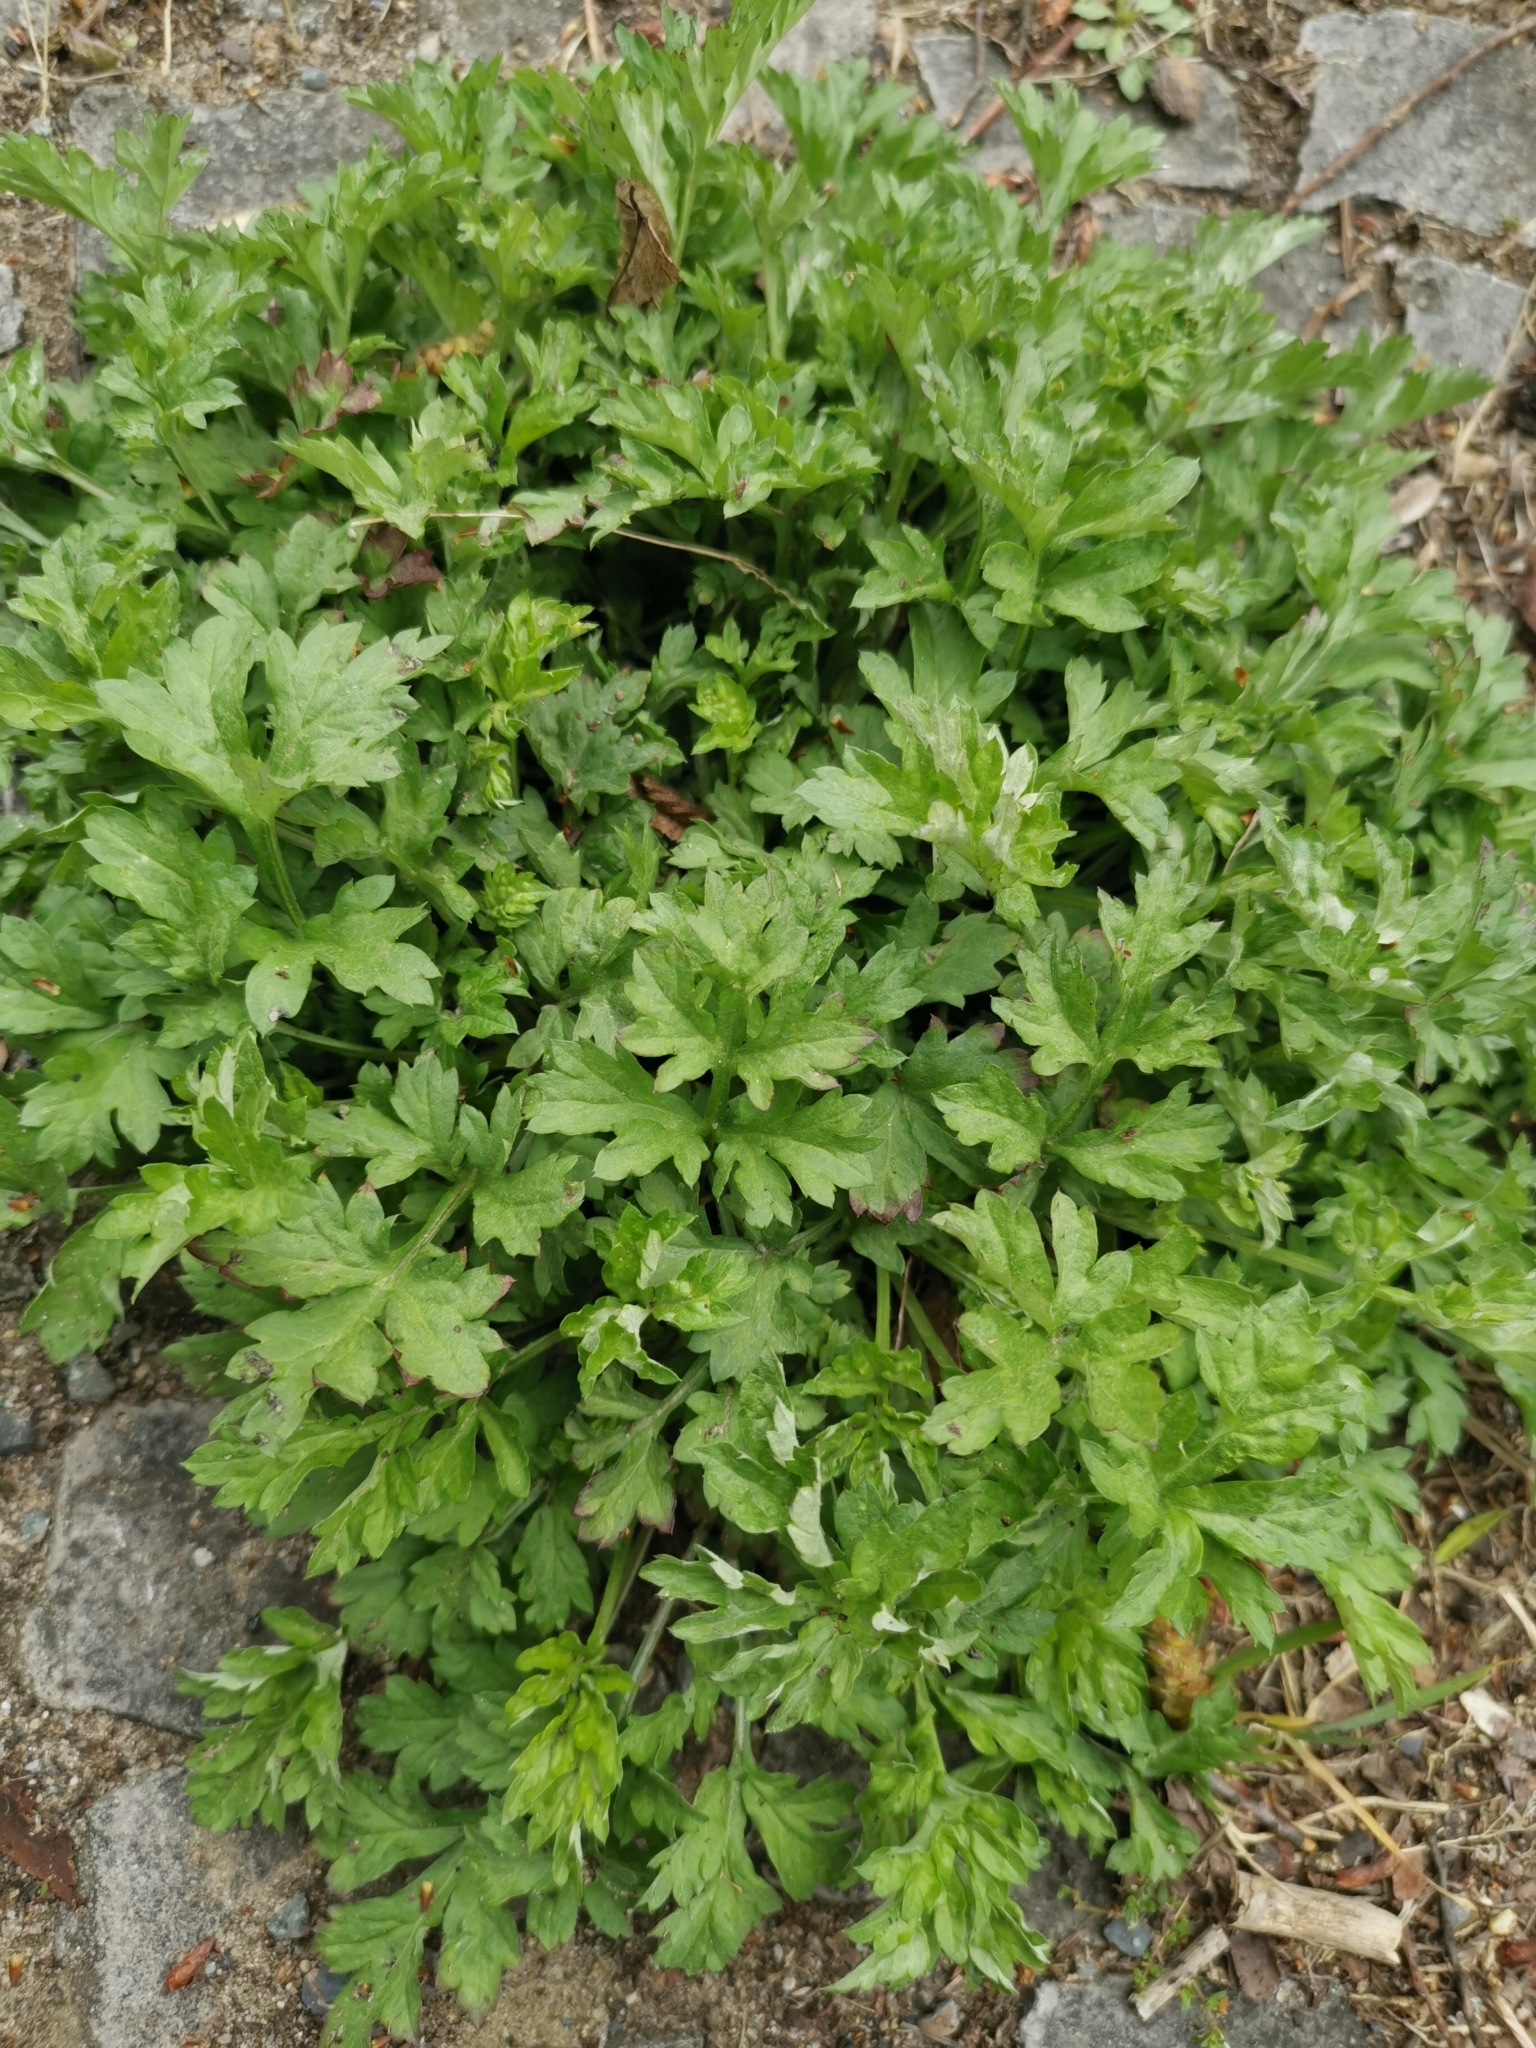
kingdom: Plantae
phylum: Tracheophyta
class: Magnoliopsida
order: Asterales
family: Asteraceae
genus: Artemisia
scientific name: Artemisia vulgaris
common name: Mugwort
